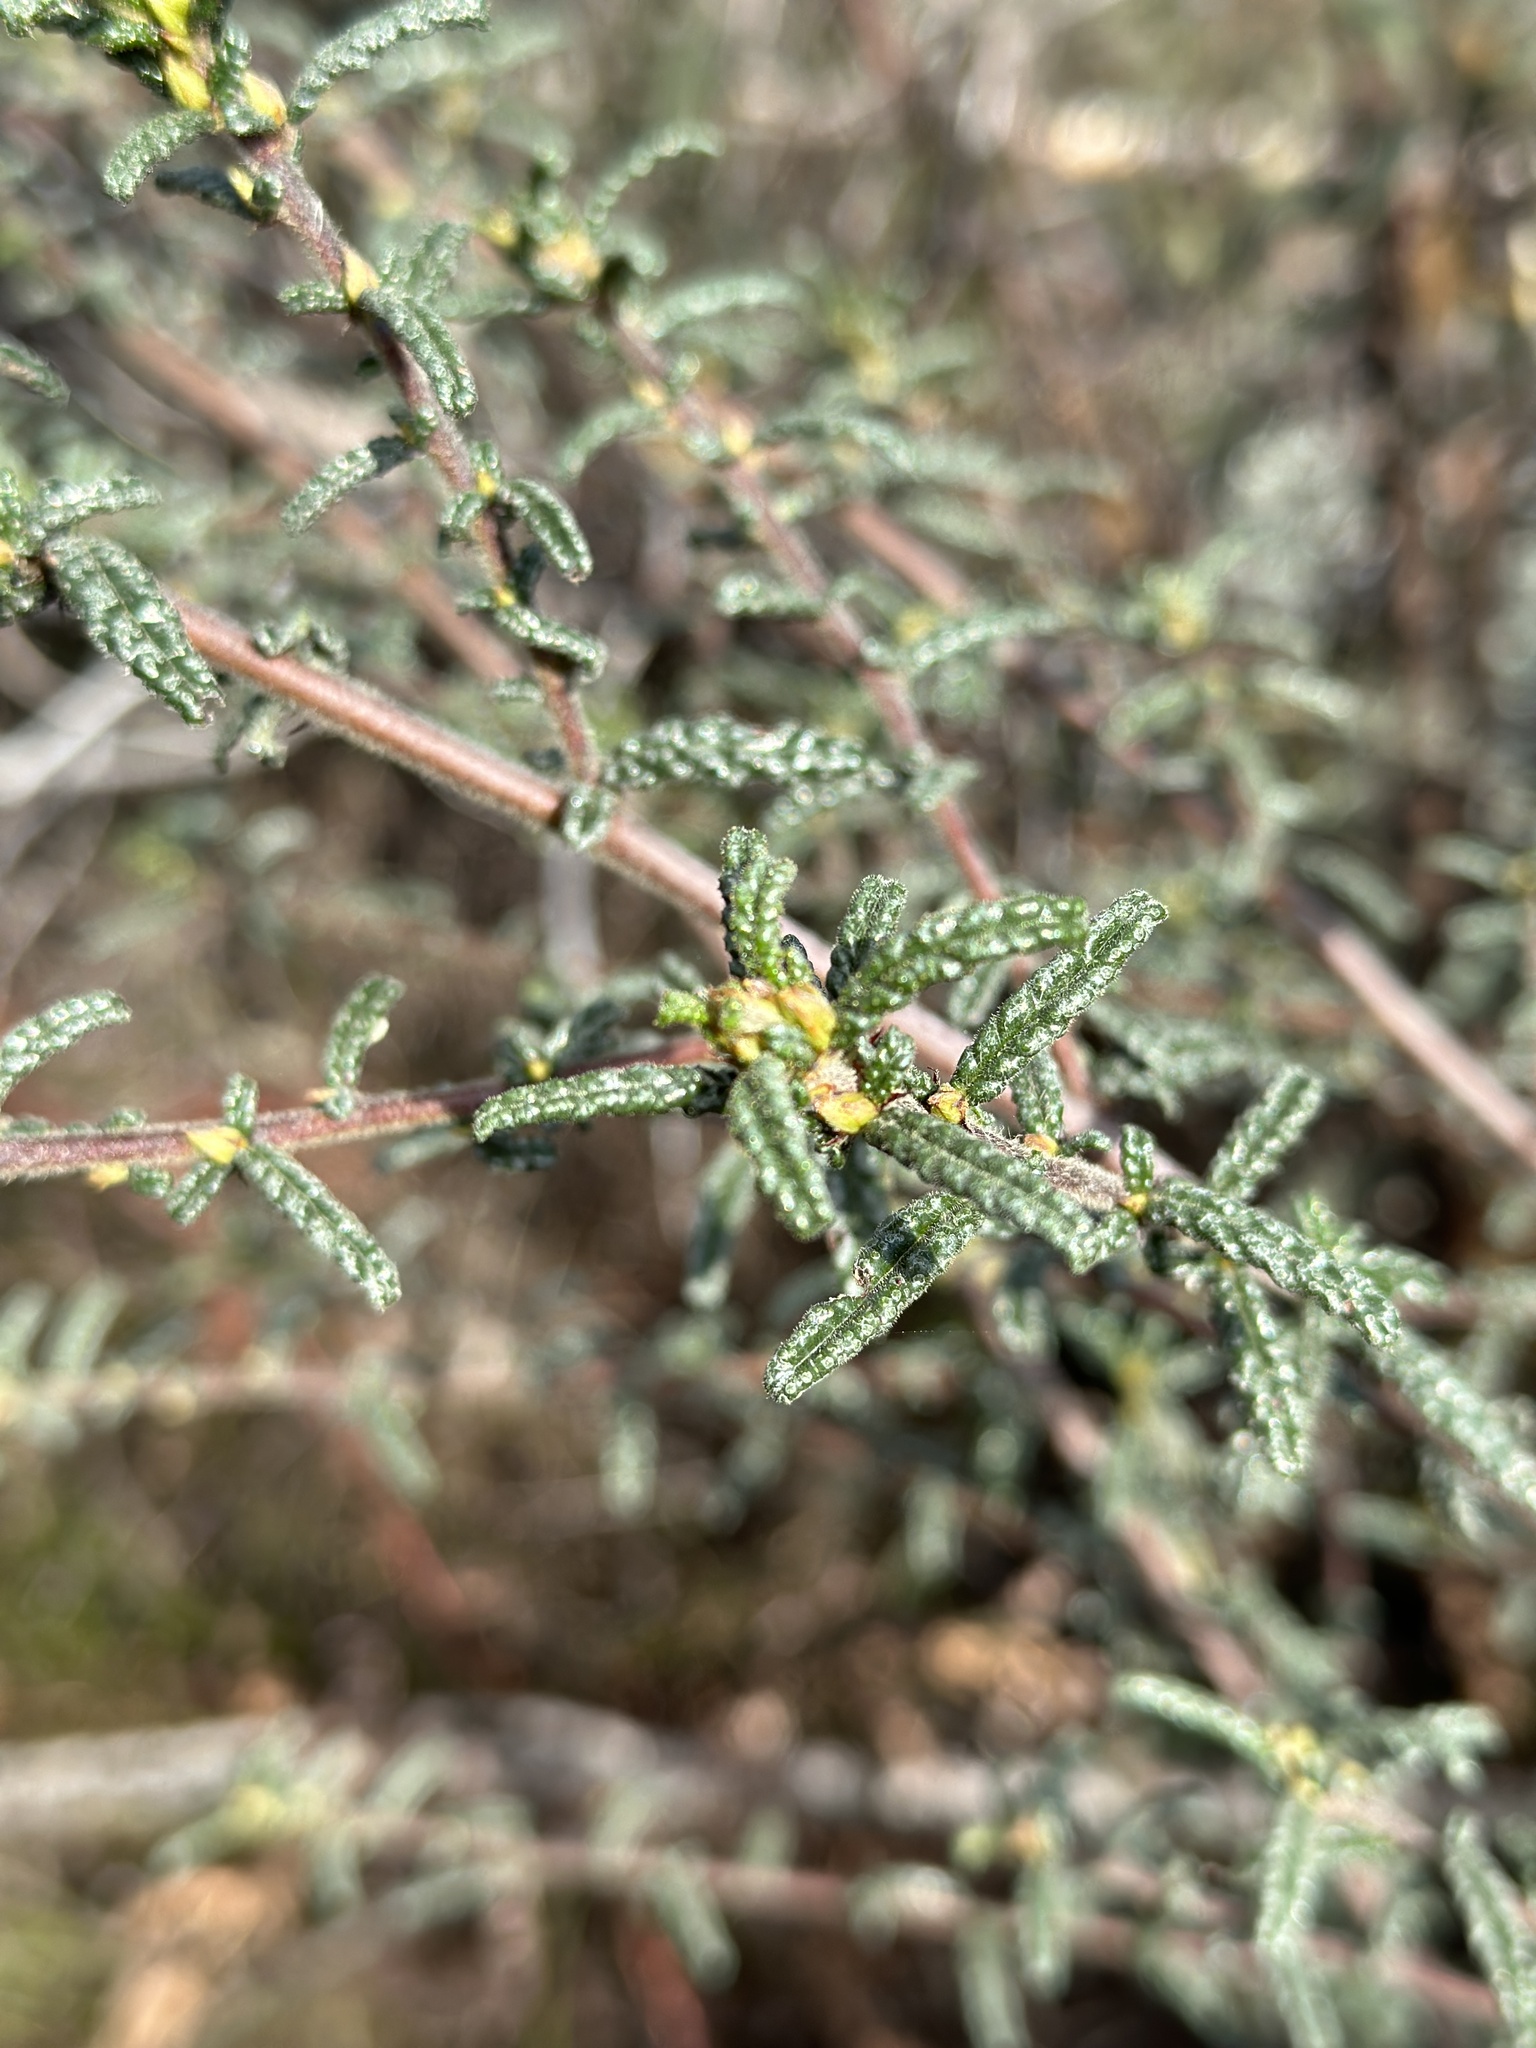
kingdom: Plantae
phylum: Tracheophyta
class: Magnoliopsida
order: Rosales
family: Rhamnaceae
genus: Ceanothus
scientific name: Ceanothus papillosus
